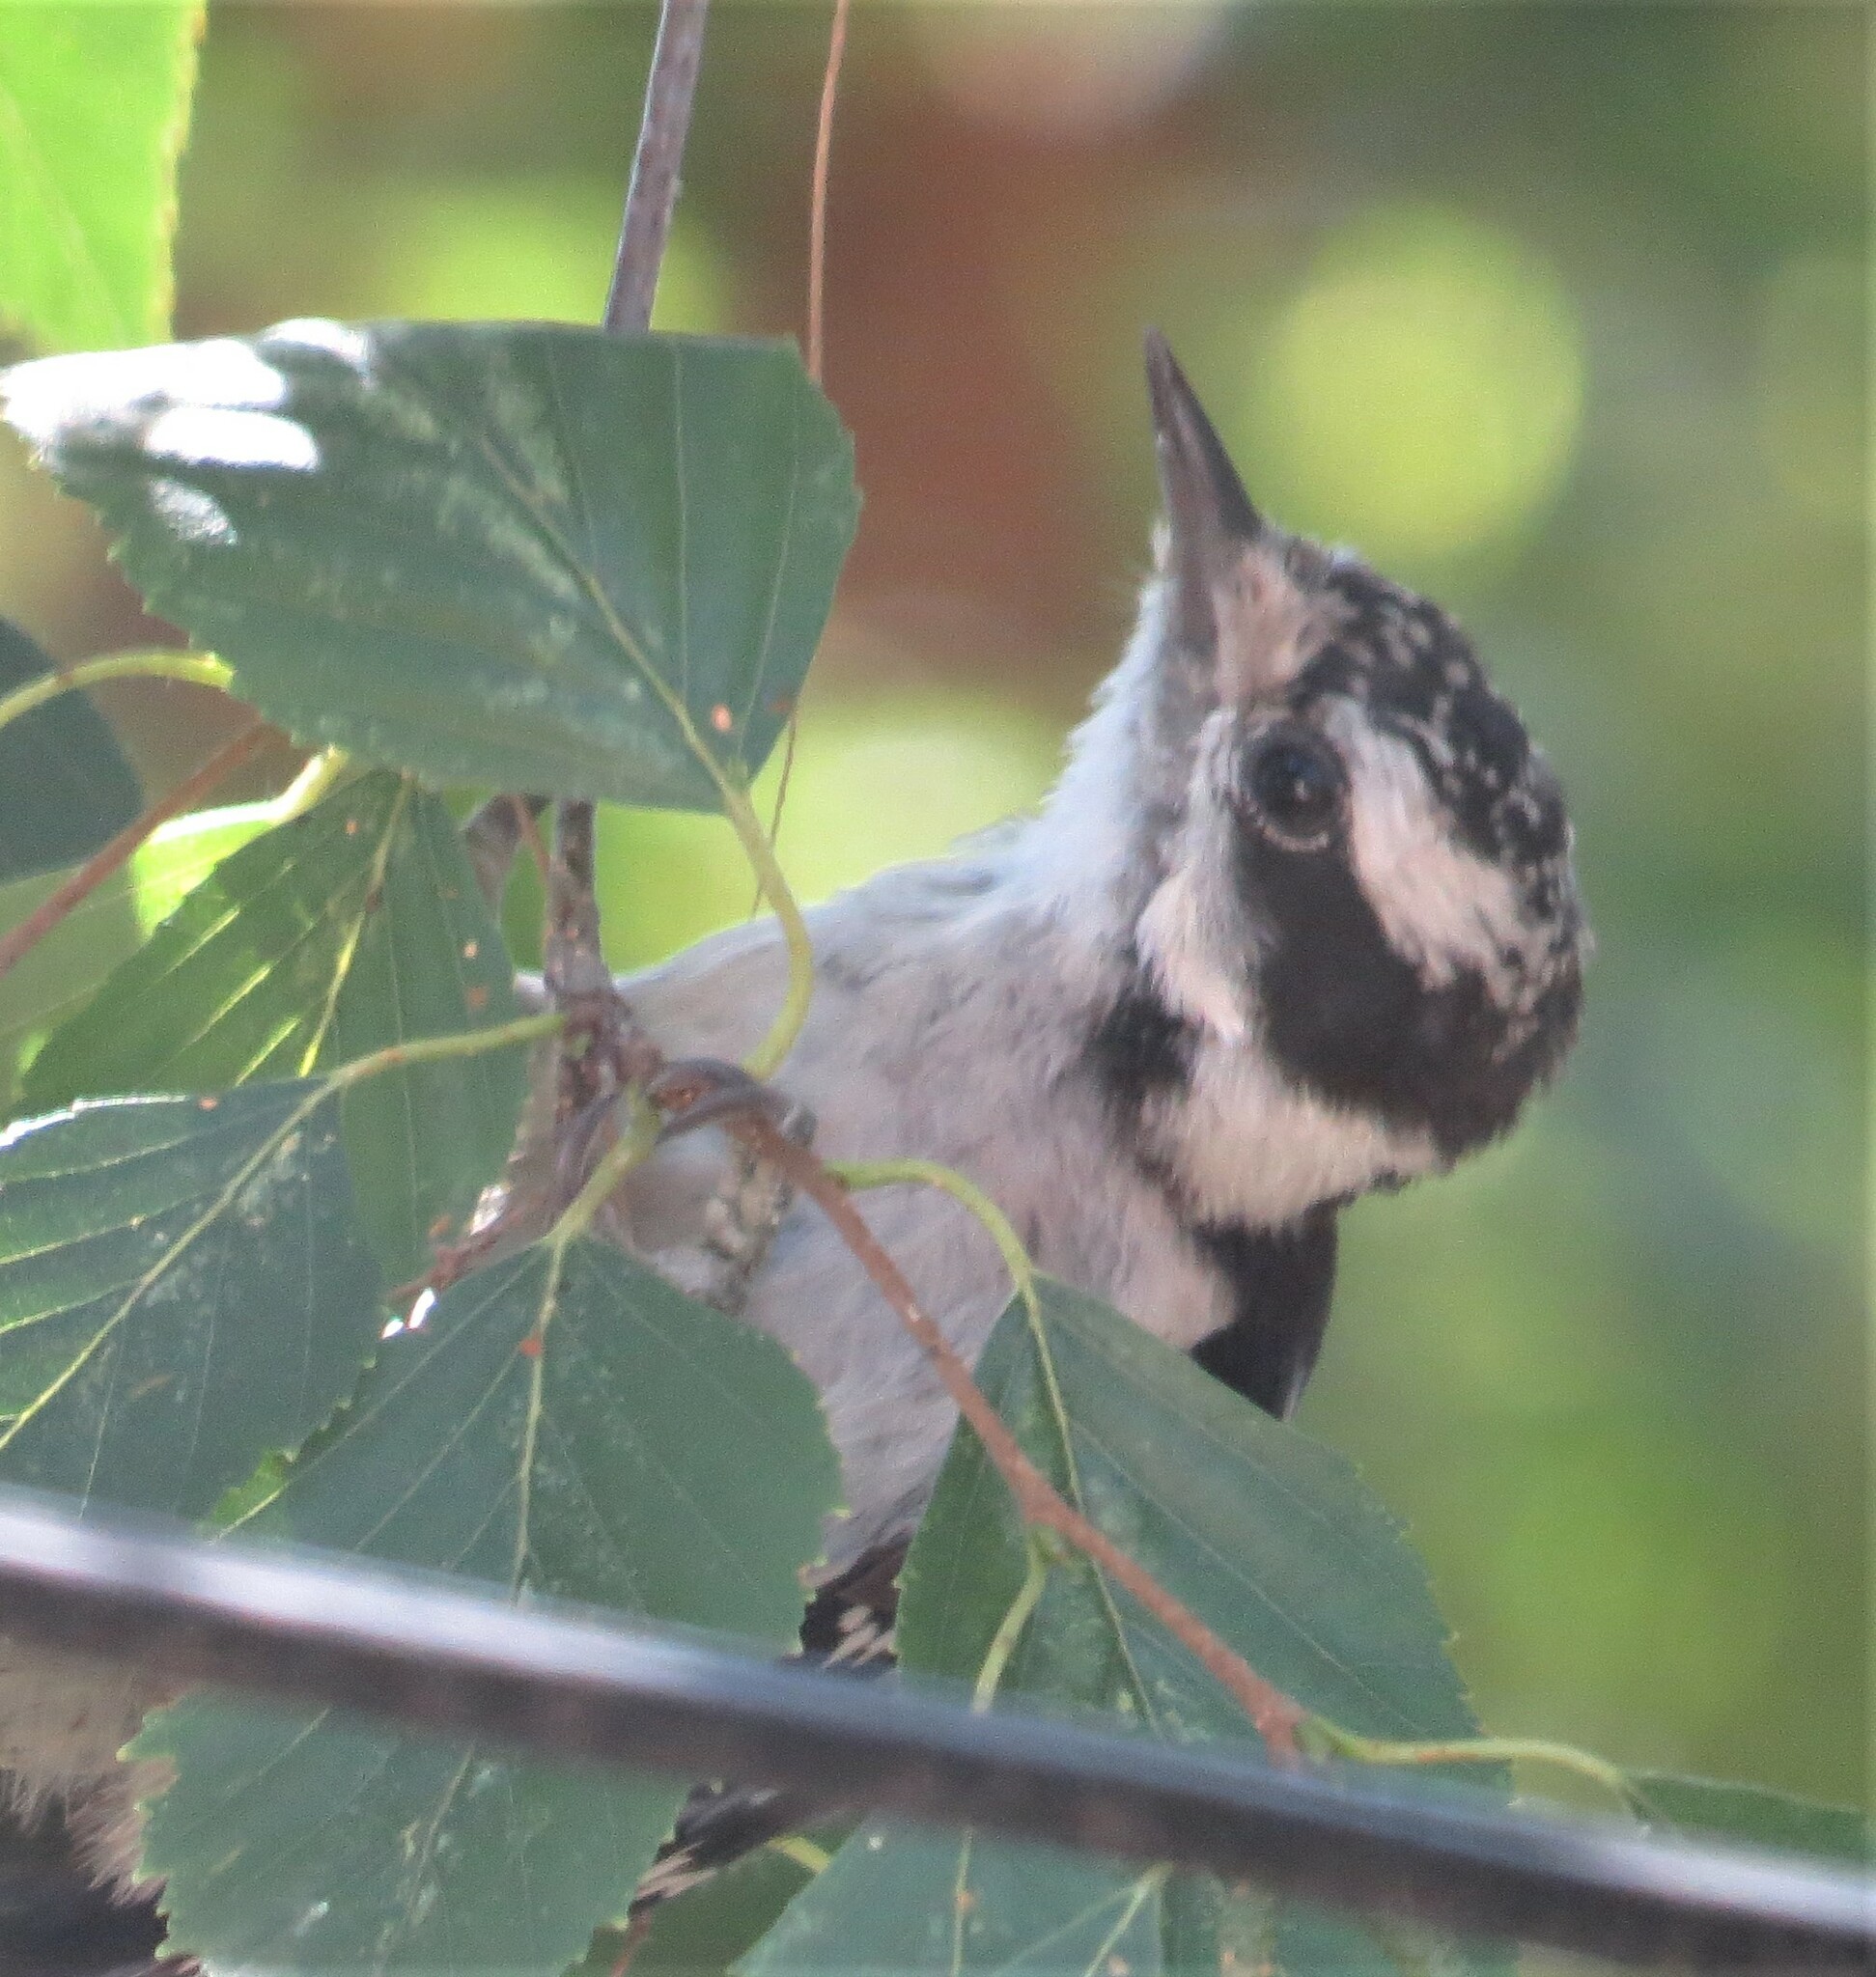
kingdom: Animalia
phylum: Chordata
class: Aves
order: Piciformes
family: Picidae
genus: Dryobates
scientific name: Dryobates pubescens
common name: Downy woodpecker
